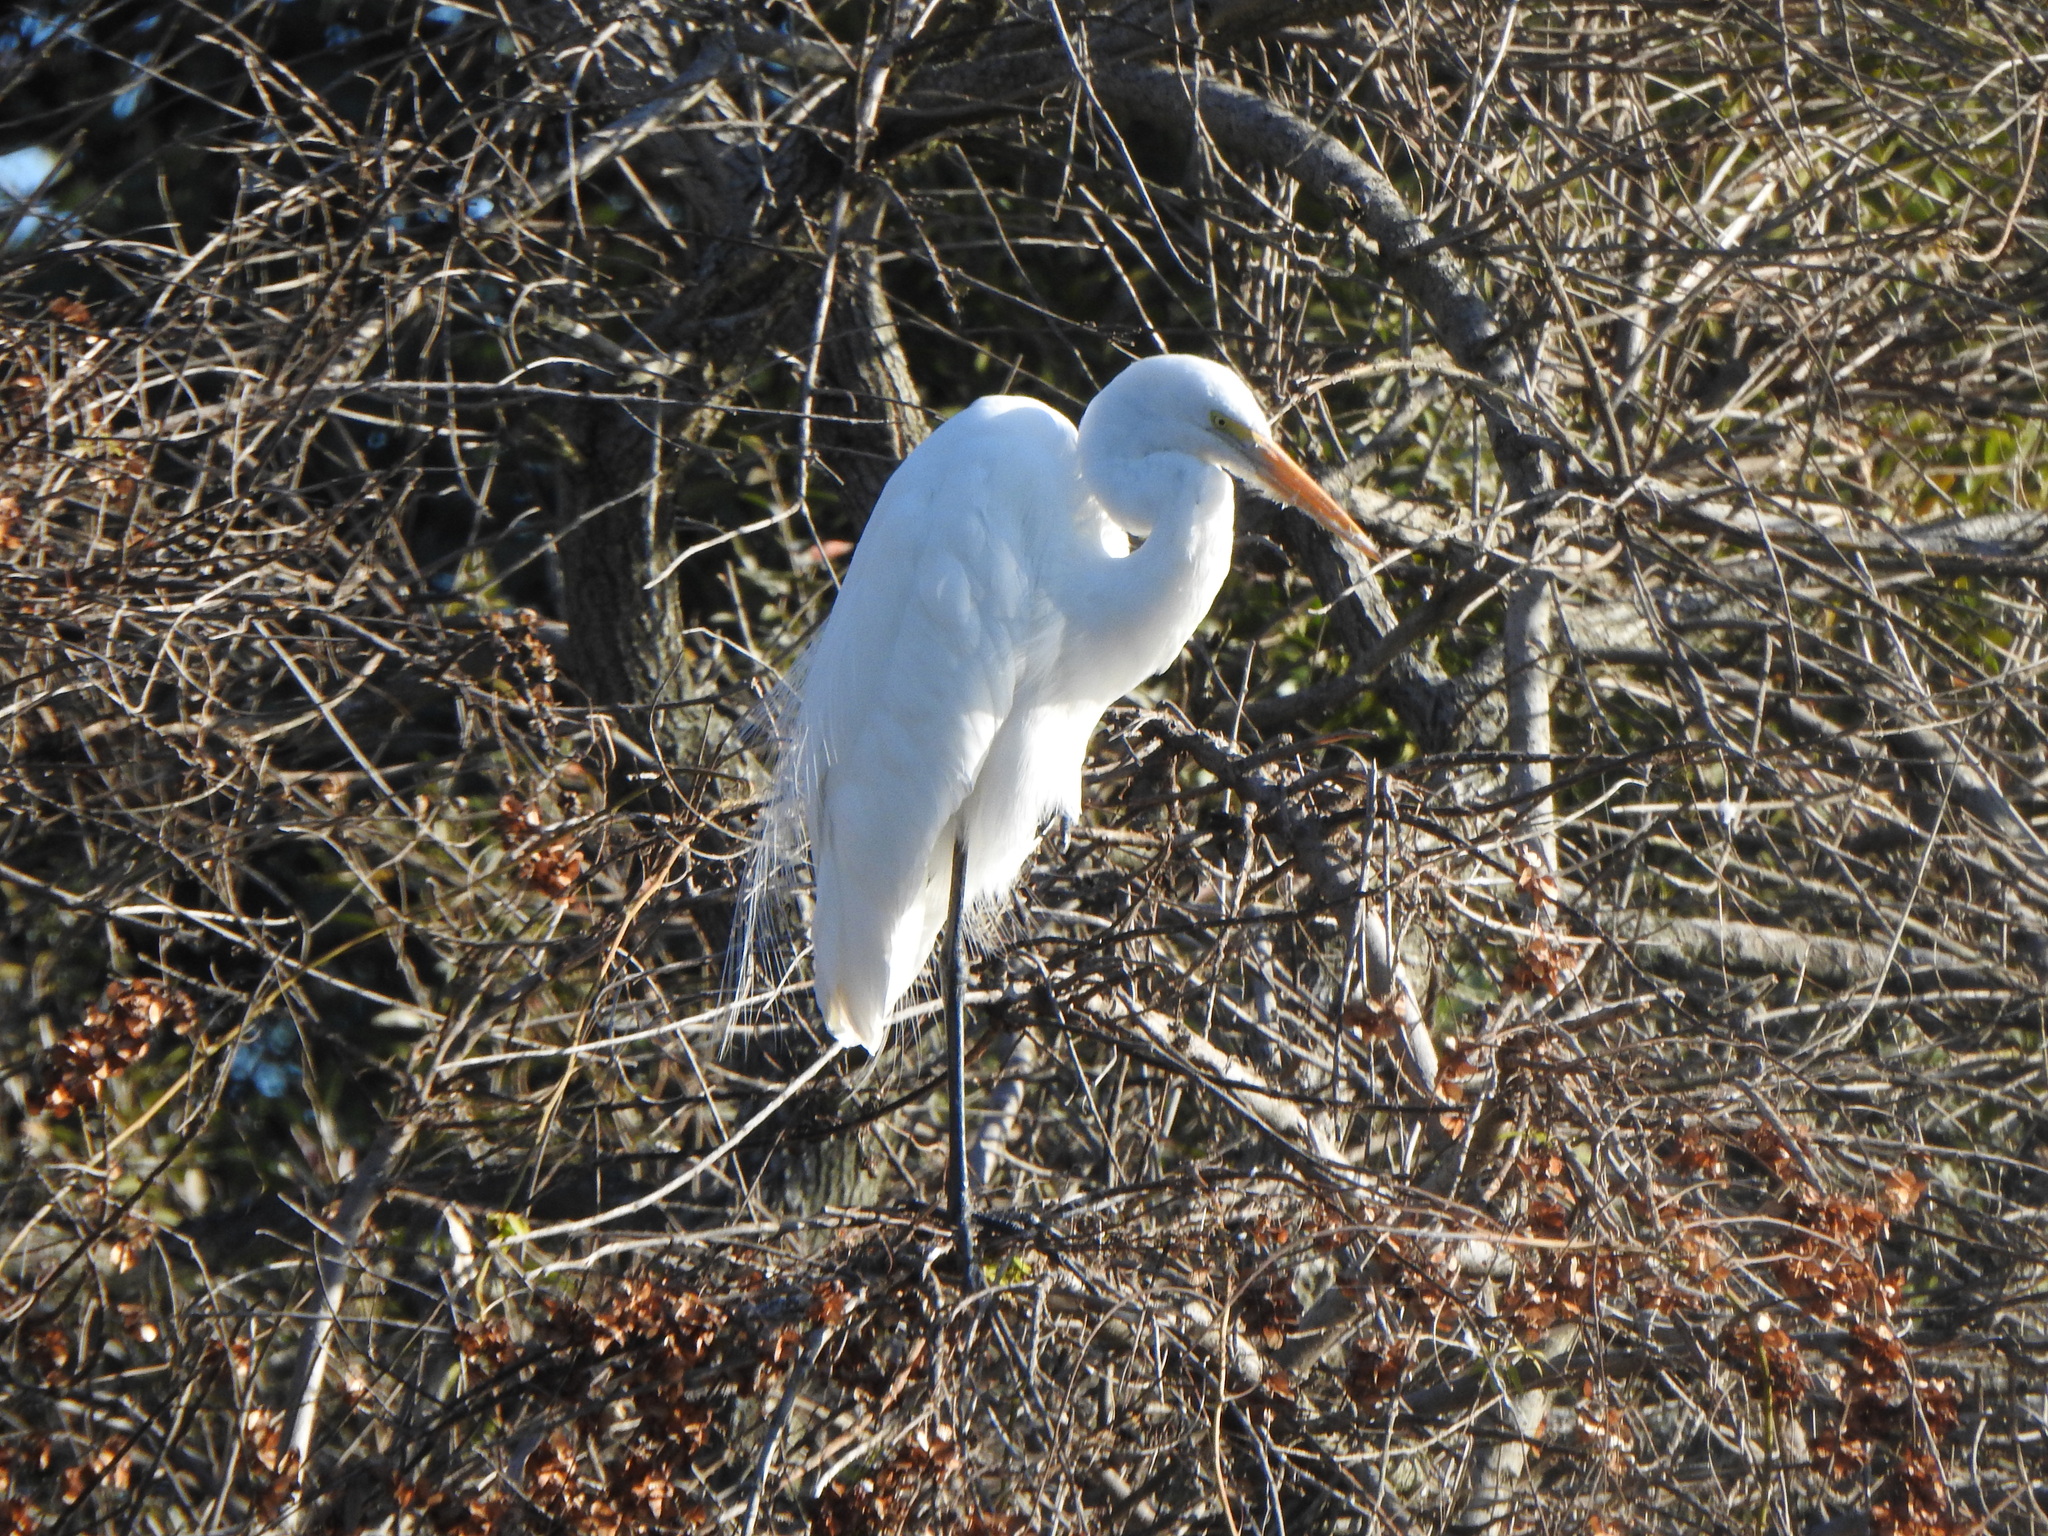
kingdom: Animalia
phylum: Chordata
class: Aves
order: Pelecaniformes
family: Ardeidae
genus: Ardea
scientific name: Ardea alba
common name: Great egret
